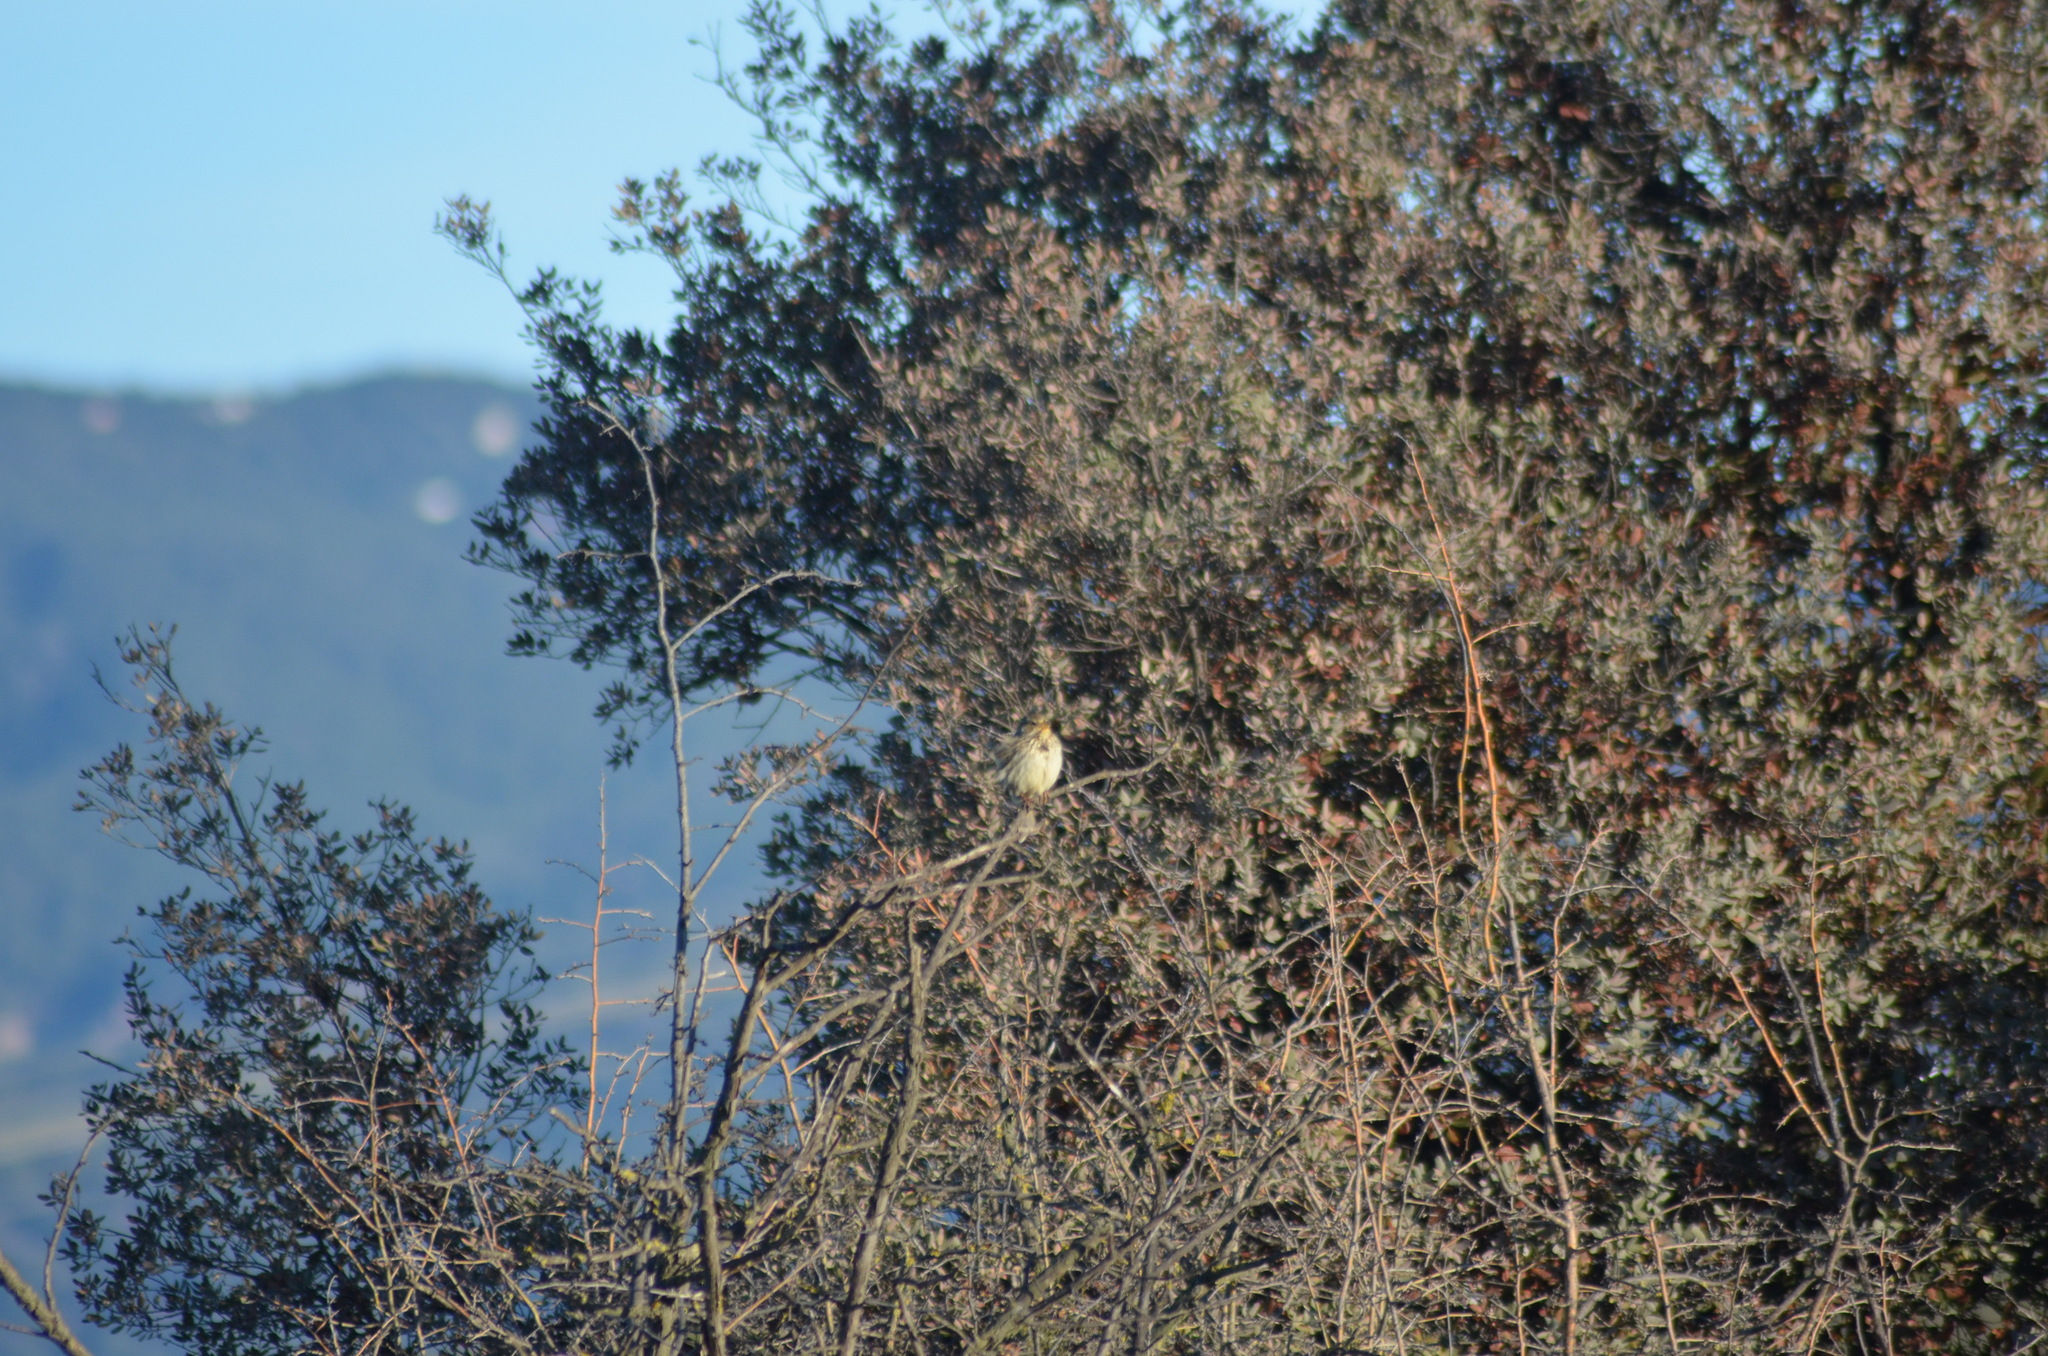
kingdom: Animalia
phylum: Chordata
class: Aves
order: Passeriformes
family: Emberizidae
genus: Emberiza
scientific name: Emberiza calandra
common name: Corn bunting
